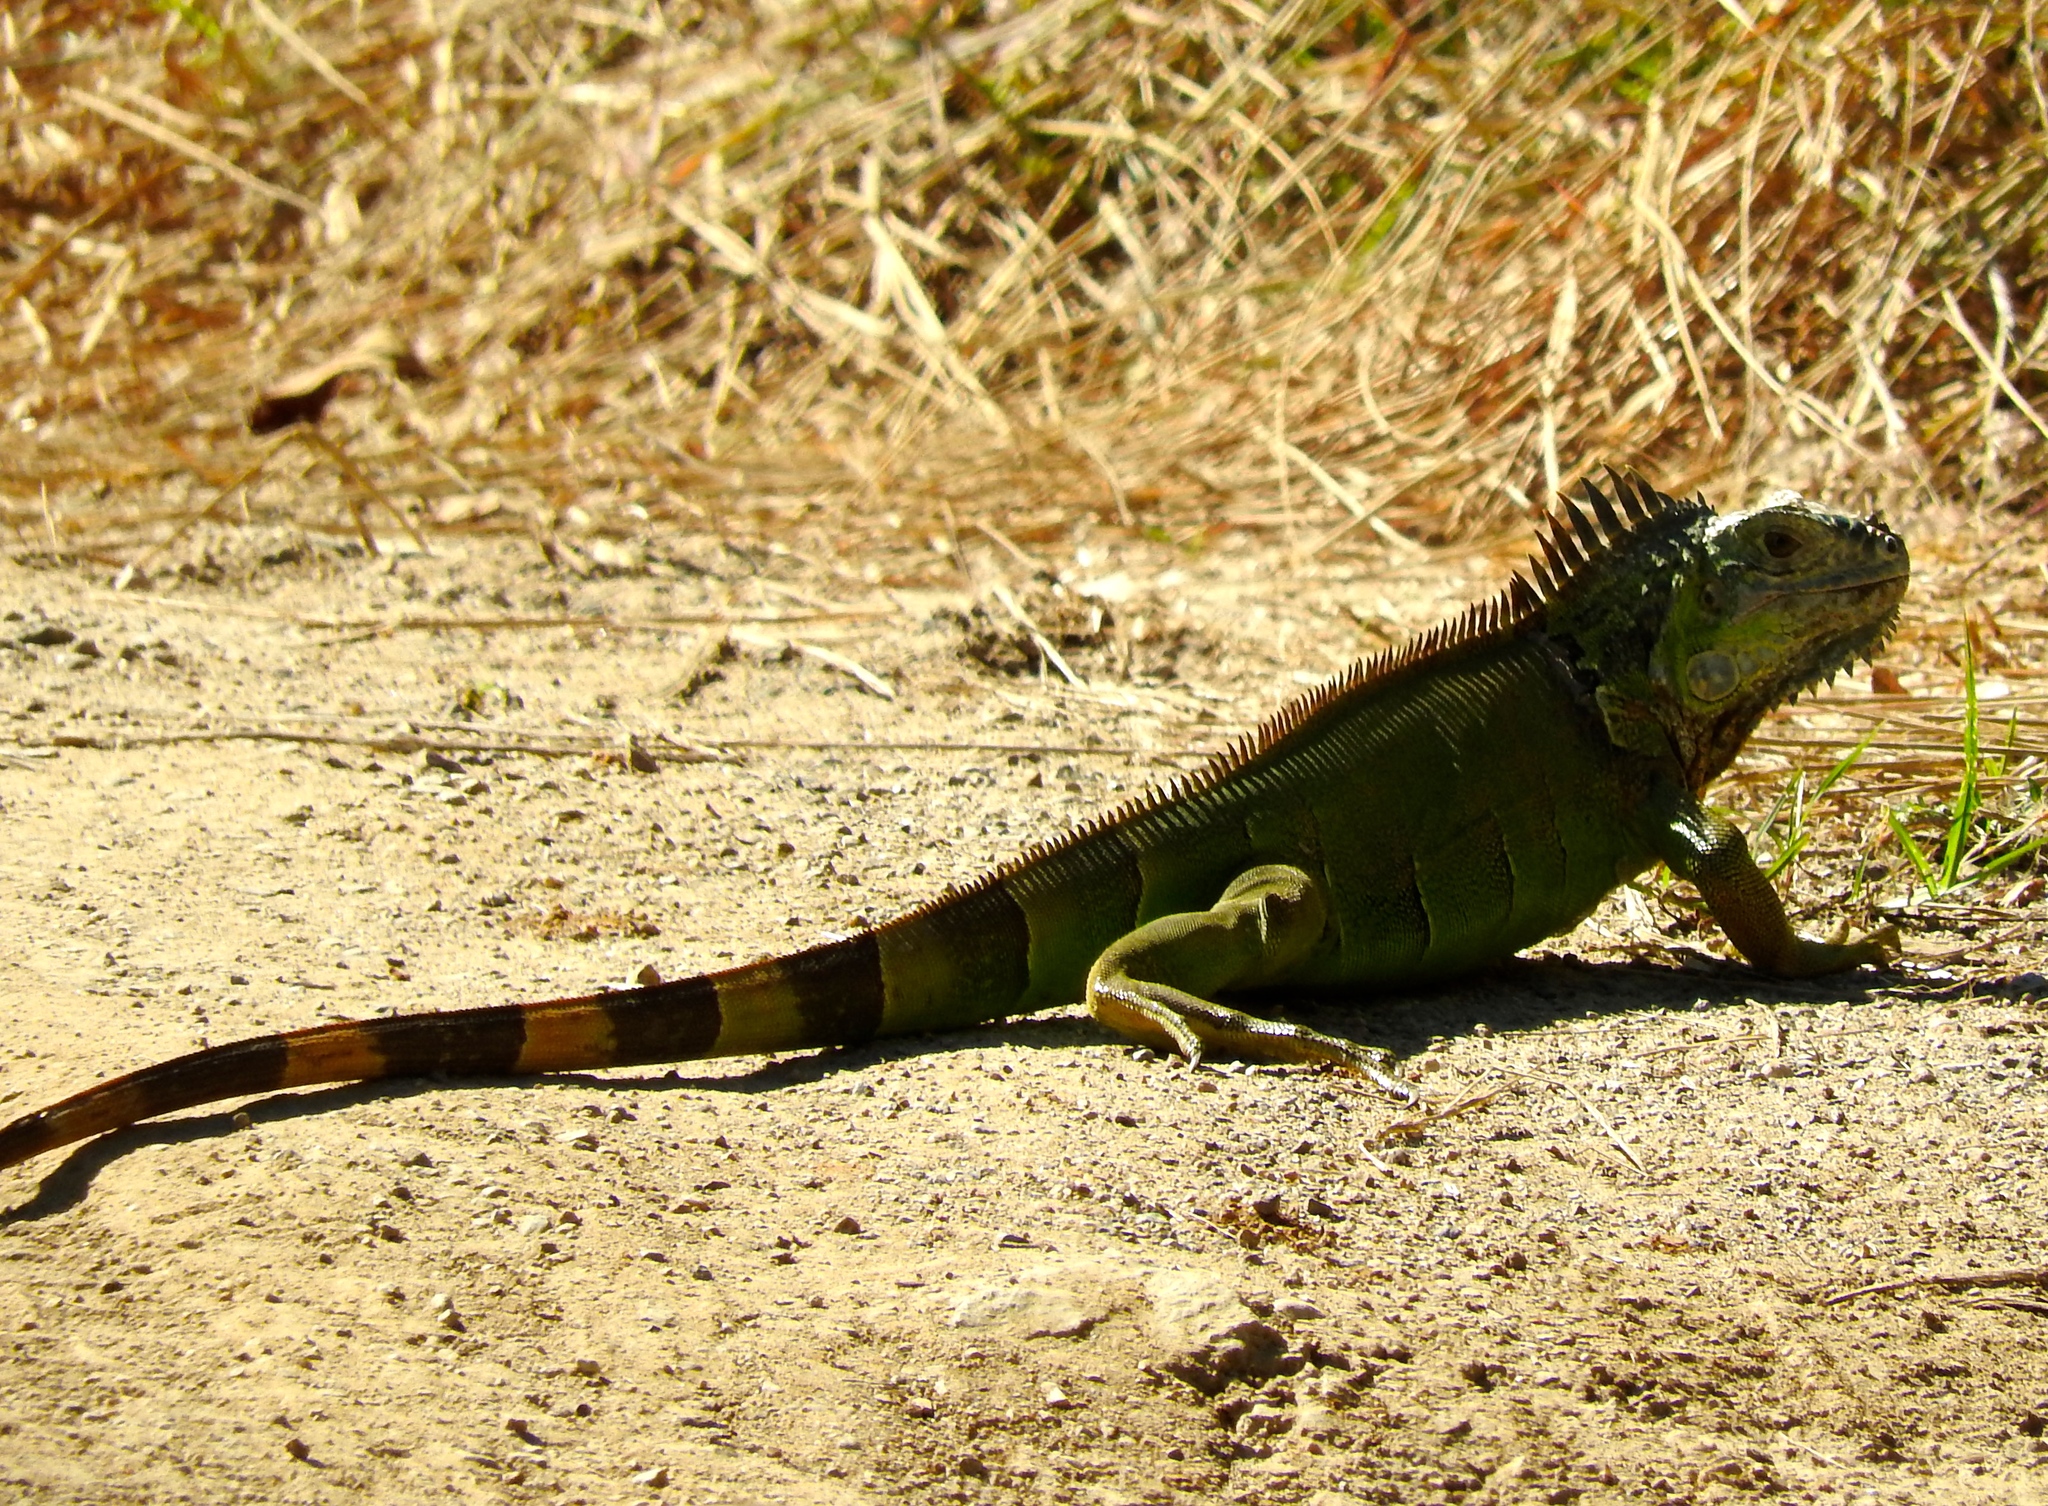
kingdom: Animalia
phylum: Chordata
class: Squamata
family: Iguanidae
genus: Iguana
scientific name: Iguana iguana
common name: Green iguana
